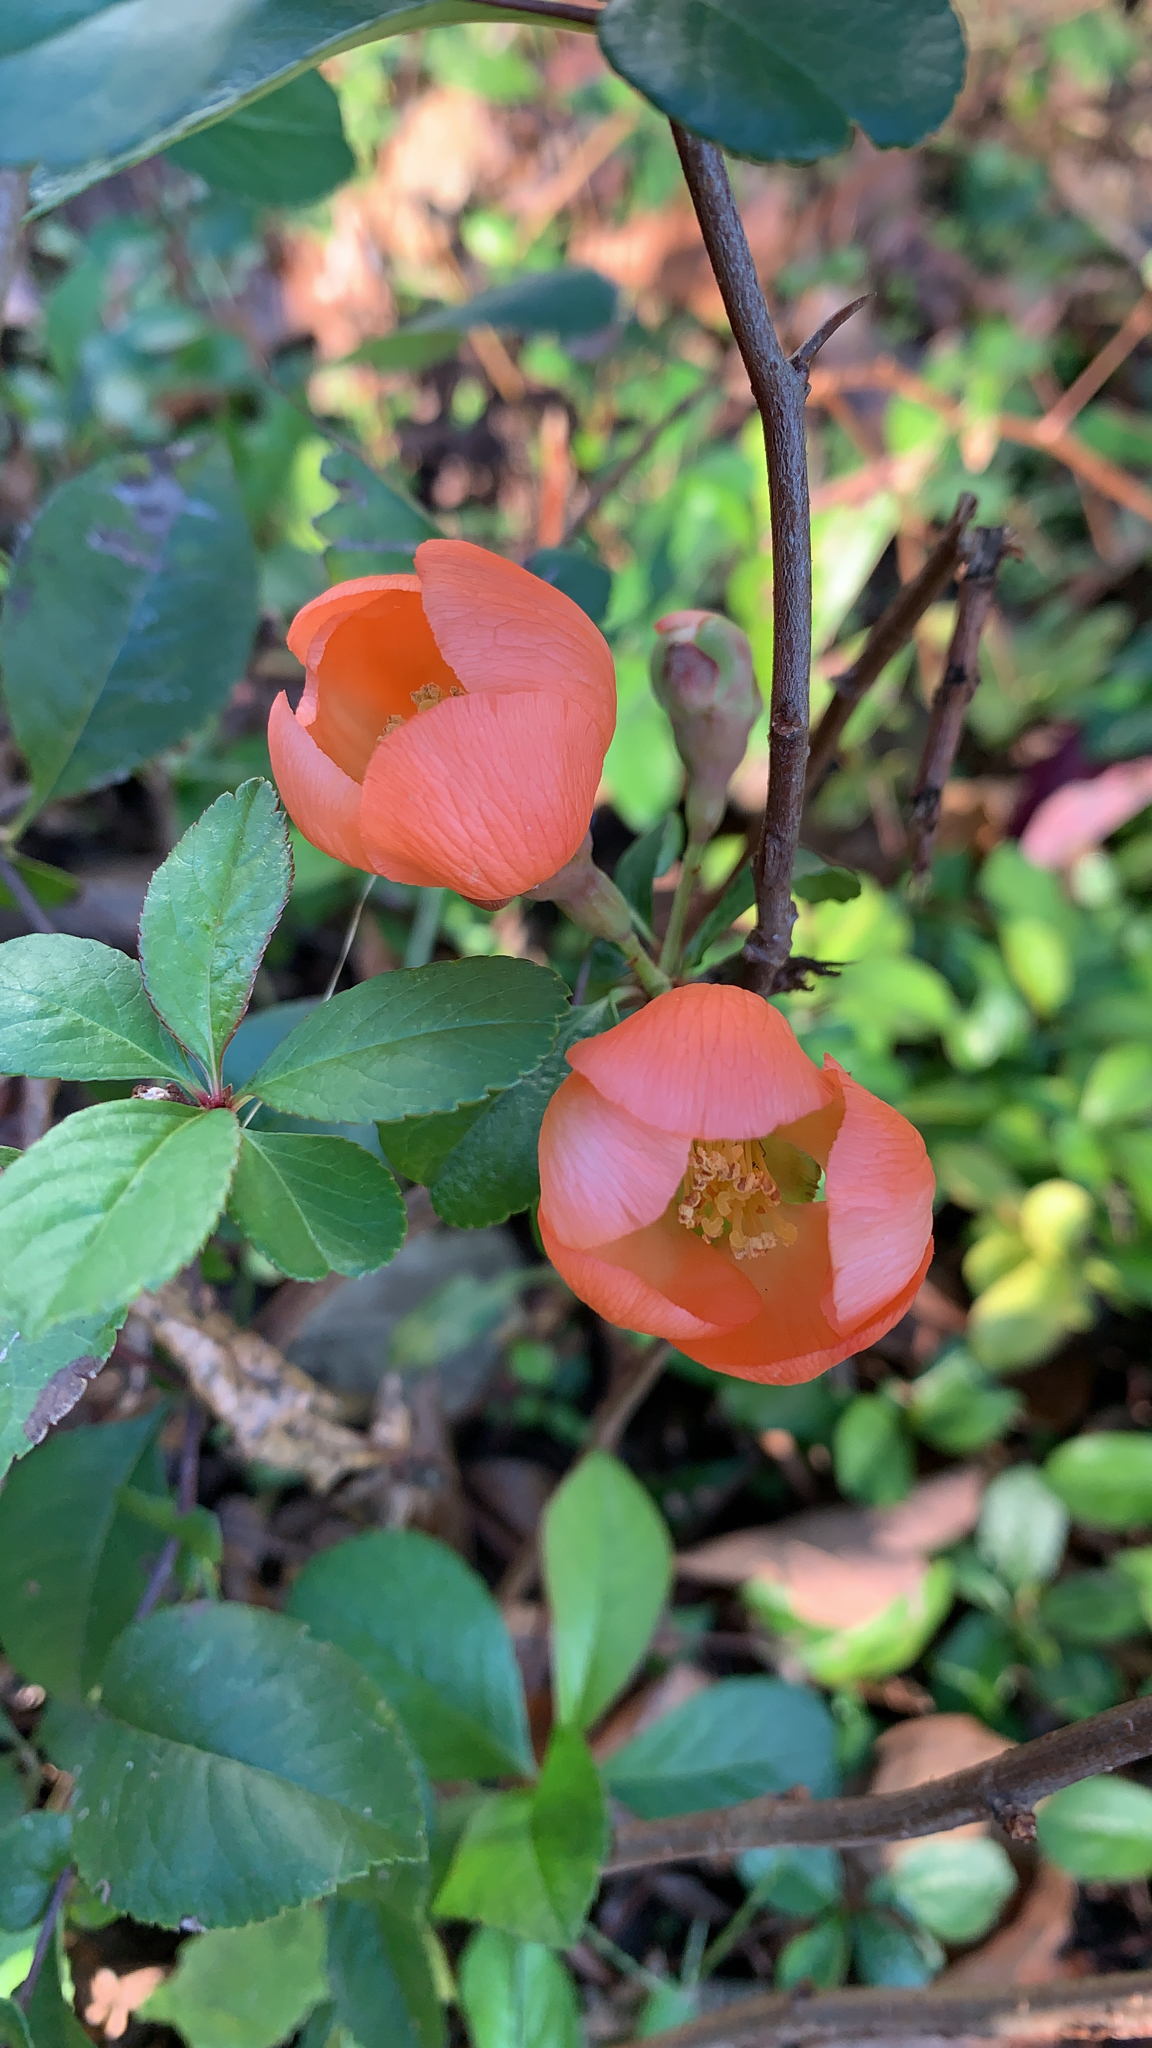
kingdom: Plantae
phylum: Tracheophyta
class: Magnoliopsida
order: Rosales
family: Rosaceae
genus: Chaenomeles
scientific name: Chaenomeles speciosa
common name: Japanese quince
